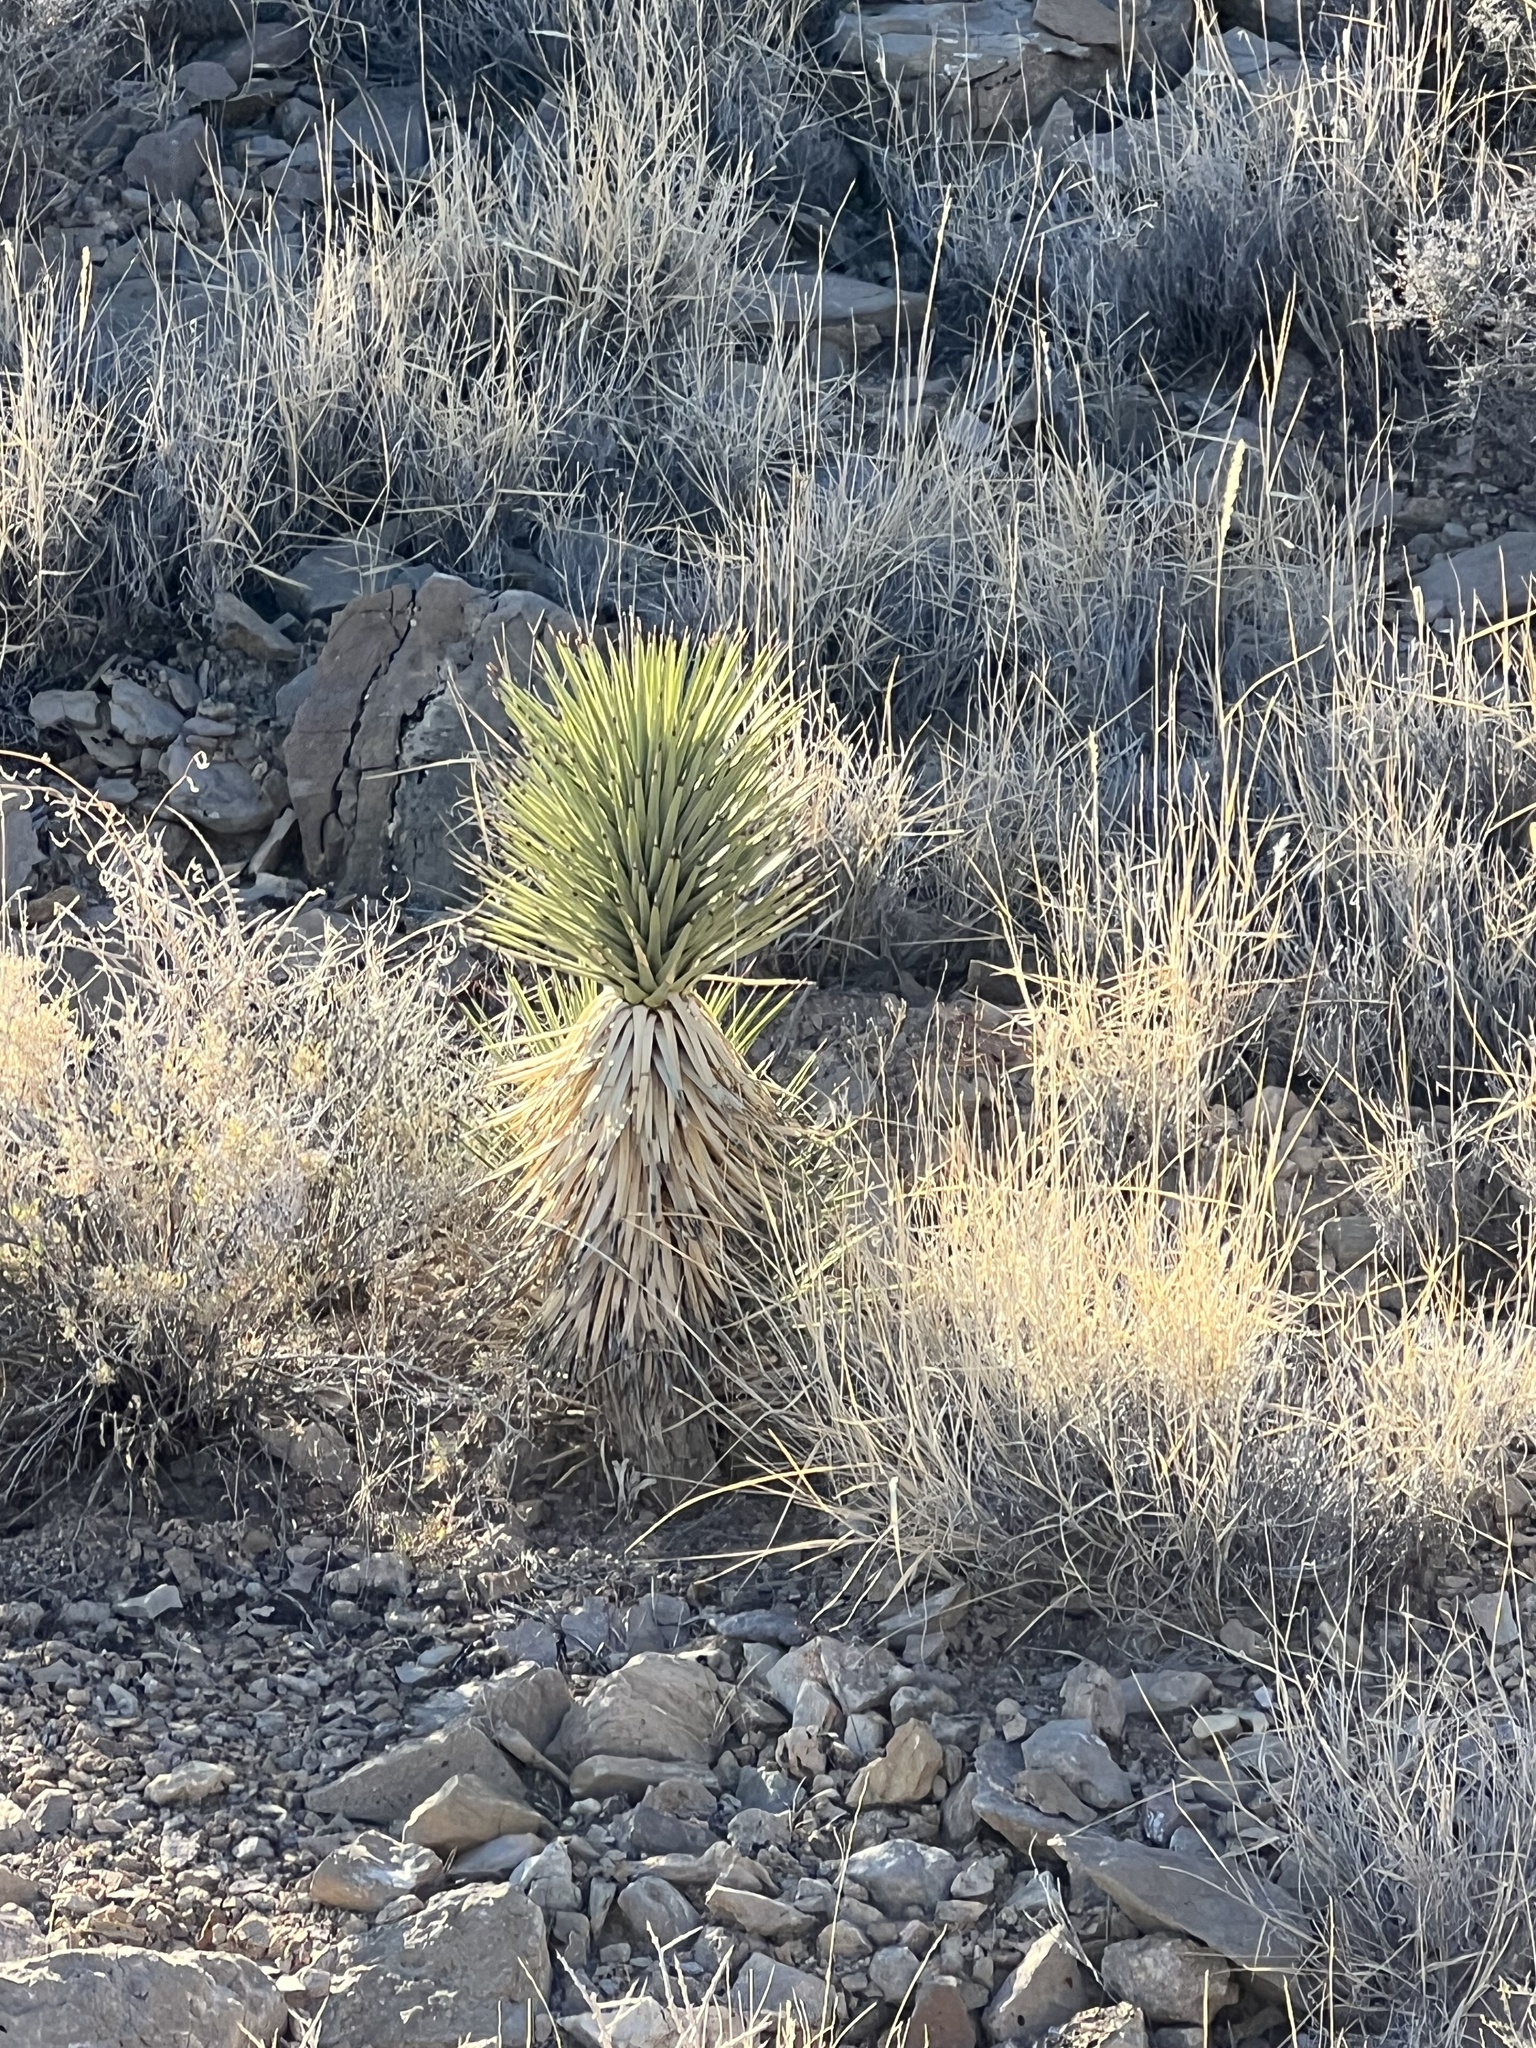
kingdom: Plantae
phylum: Tracheophyta
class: Liliopsida
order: Asparagales
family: Asparagaceae
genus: Yucca
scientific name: Yucca brevifolia
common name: Joshua tree
